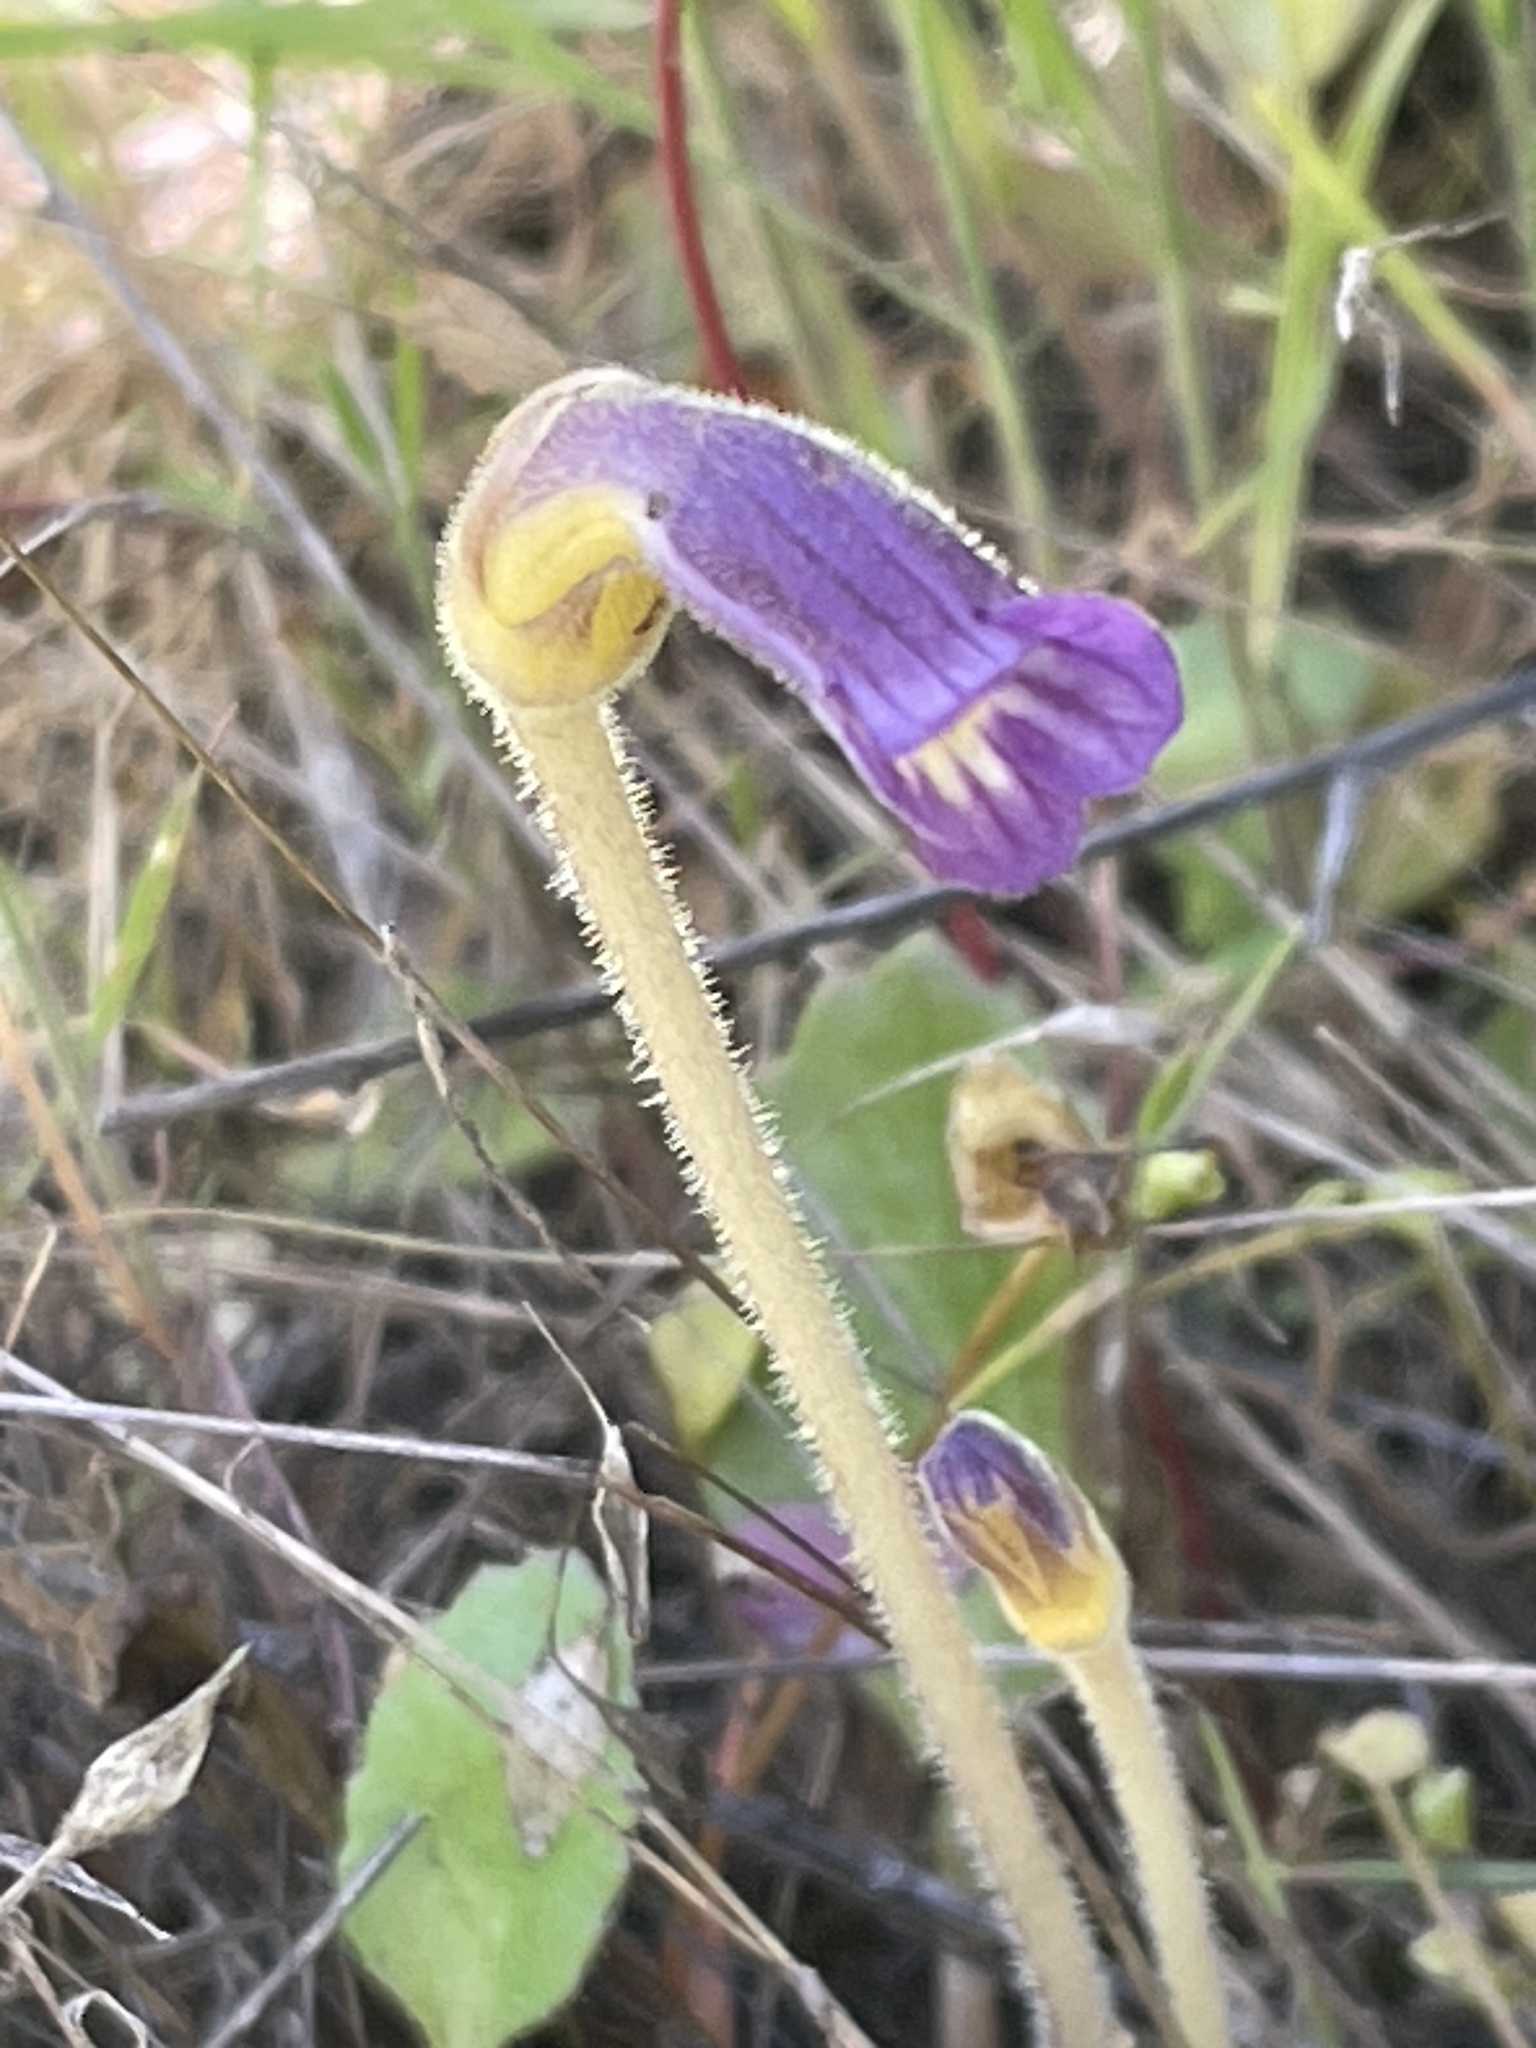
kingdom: Plantae
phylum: Tracheophyta
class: Magnoliopsida
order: Lamiales
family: Orobanchaceae
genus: Aphyllon
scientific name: Aphyllon uniflorum
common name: One-flowered broomrape
